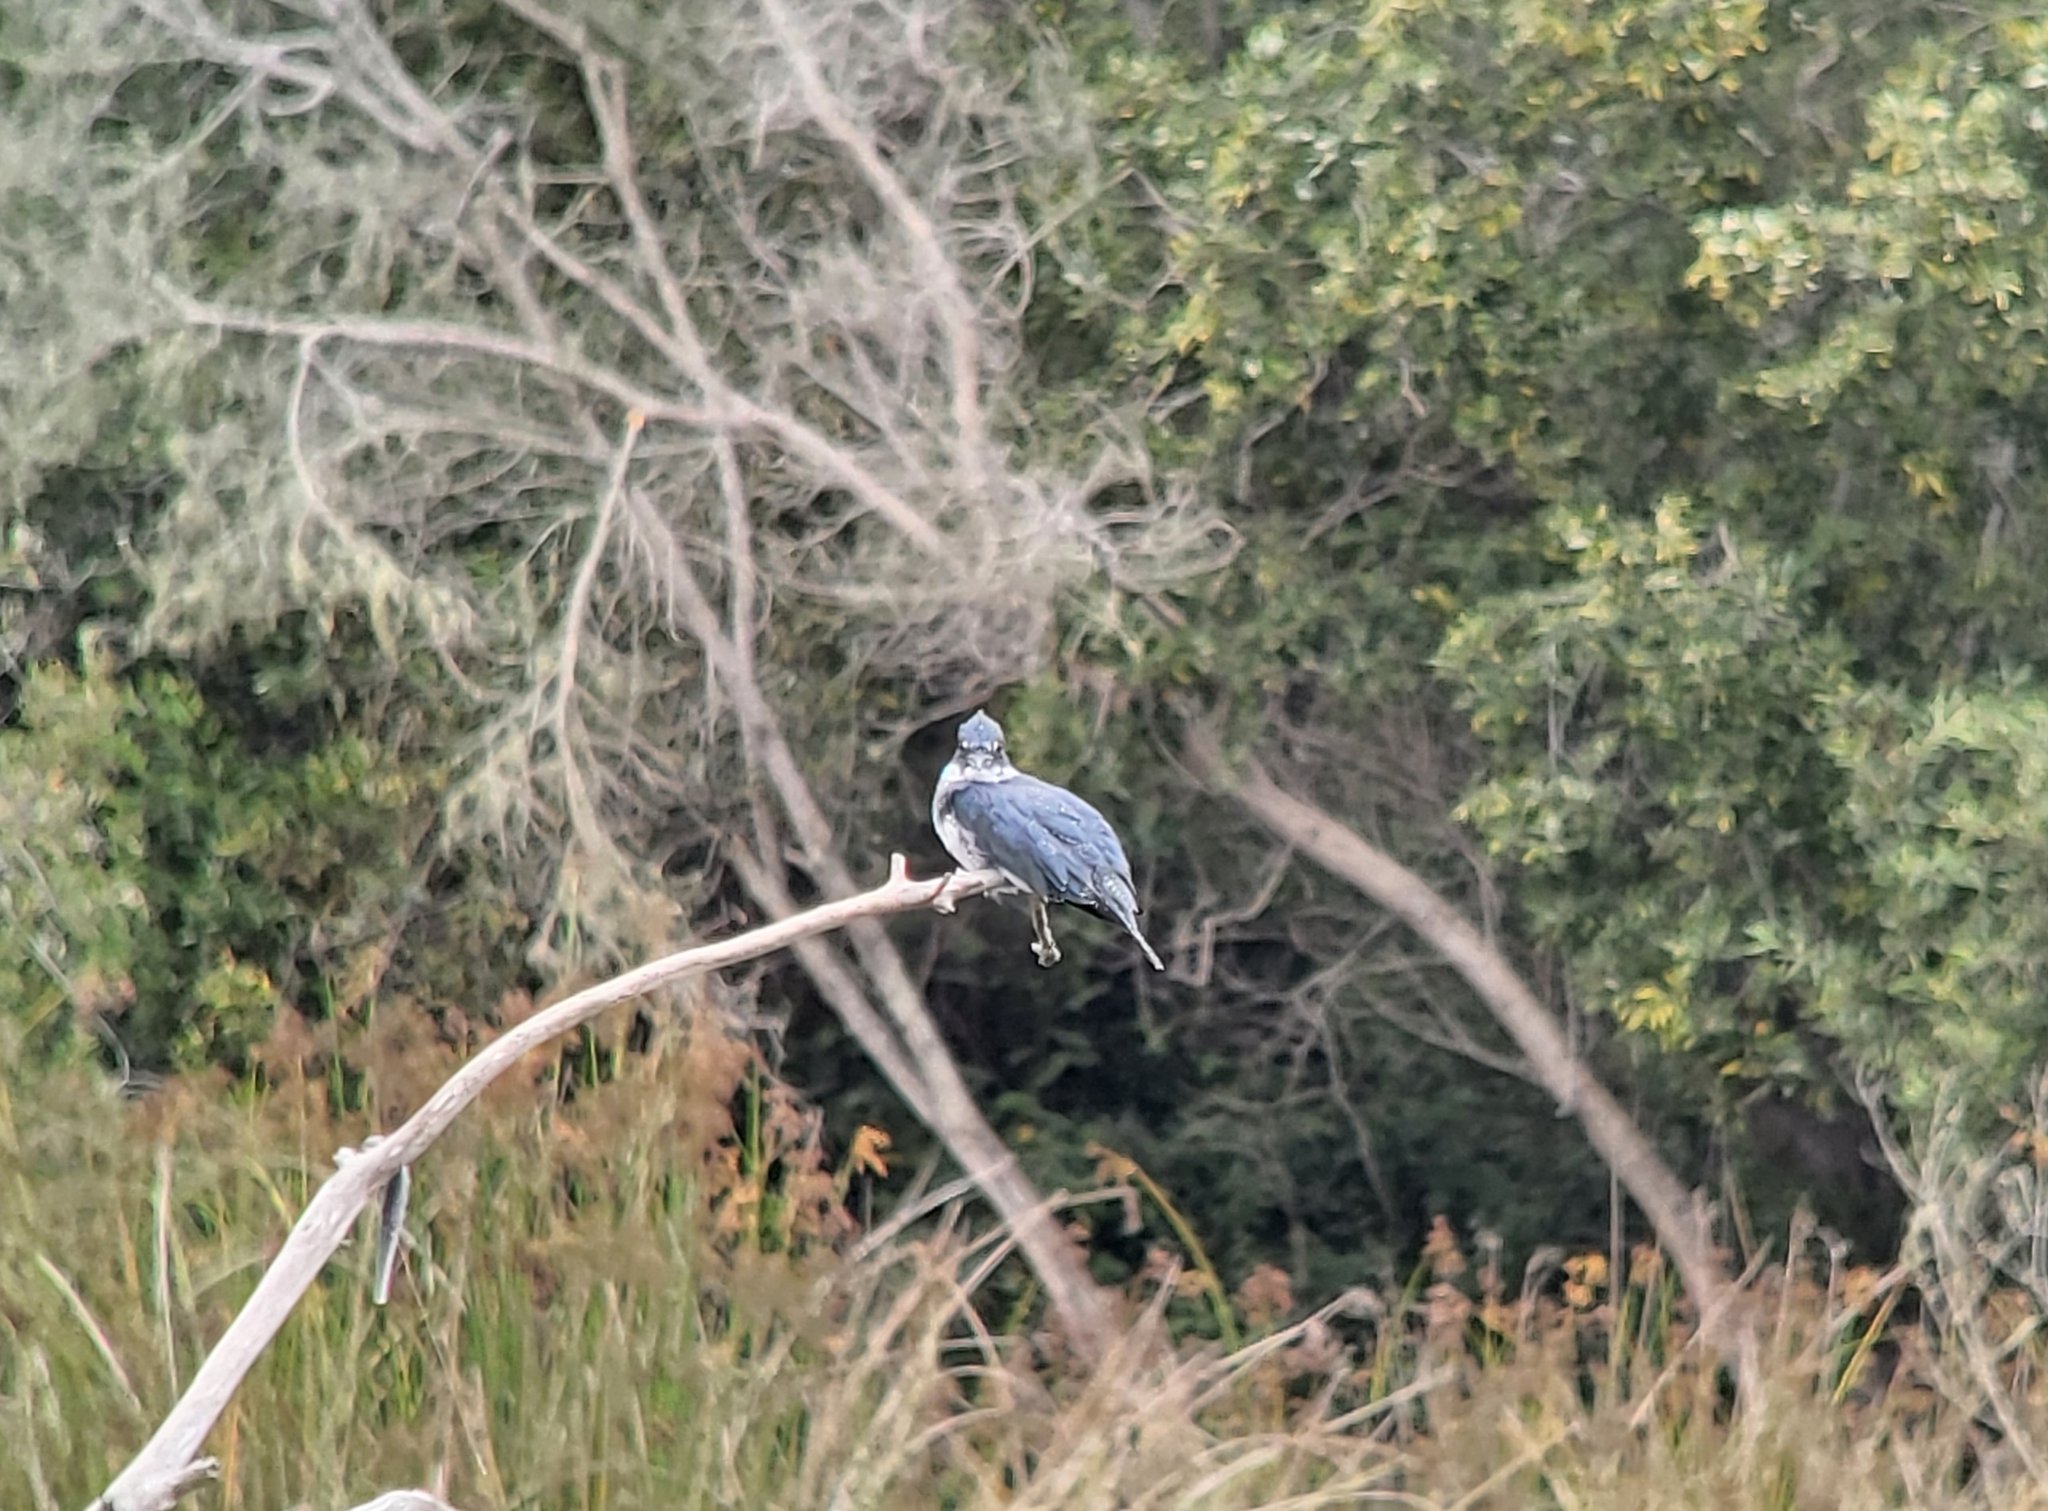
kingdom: Animalia
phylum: Chordata
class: Aves
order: Coraciiformes
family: Alcedinidae
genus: Megaceryle
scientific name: Megaceryle alcyon
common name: Belted kingfisher
